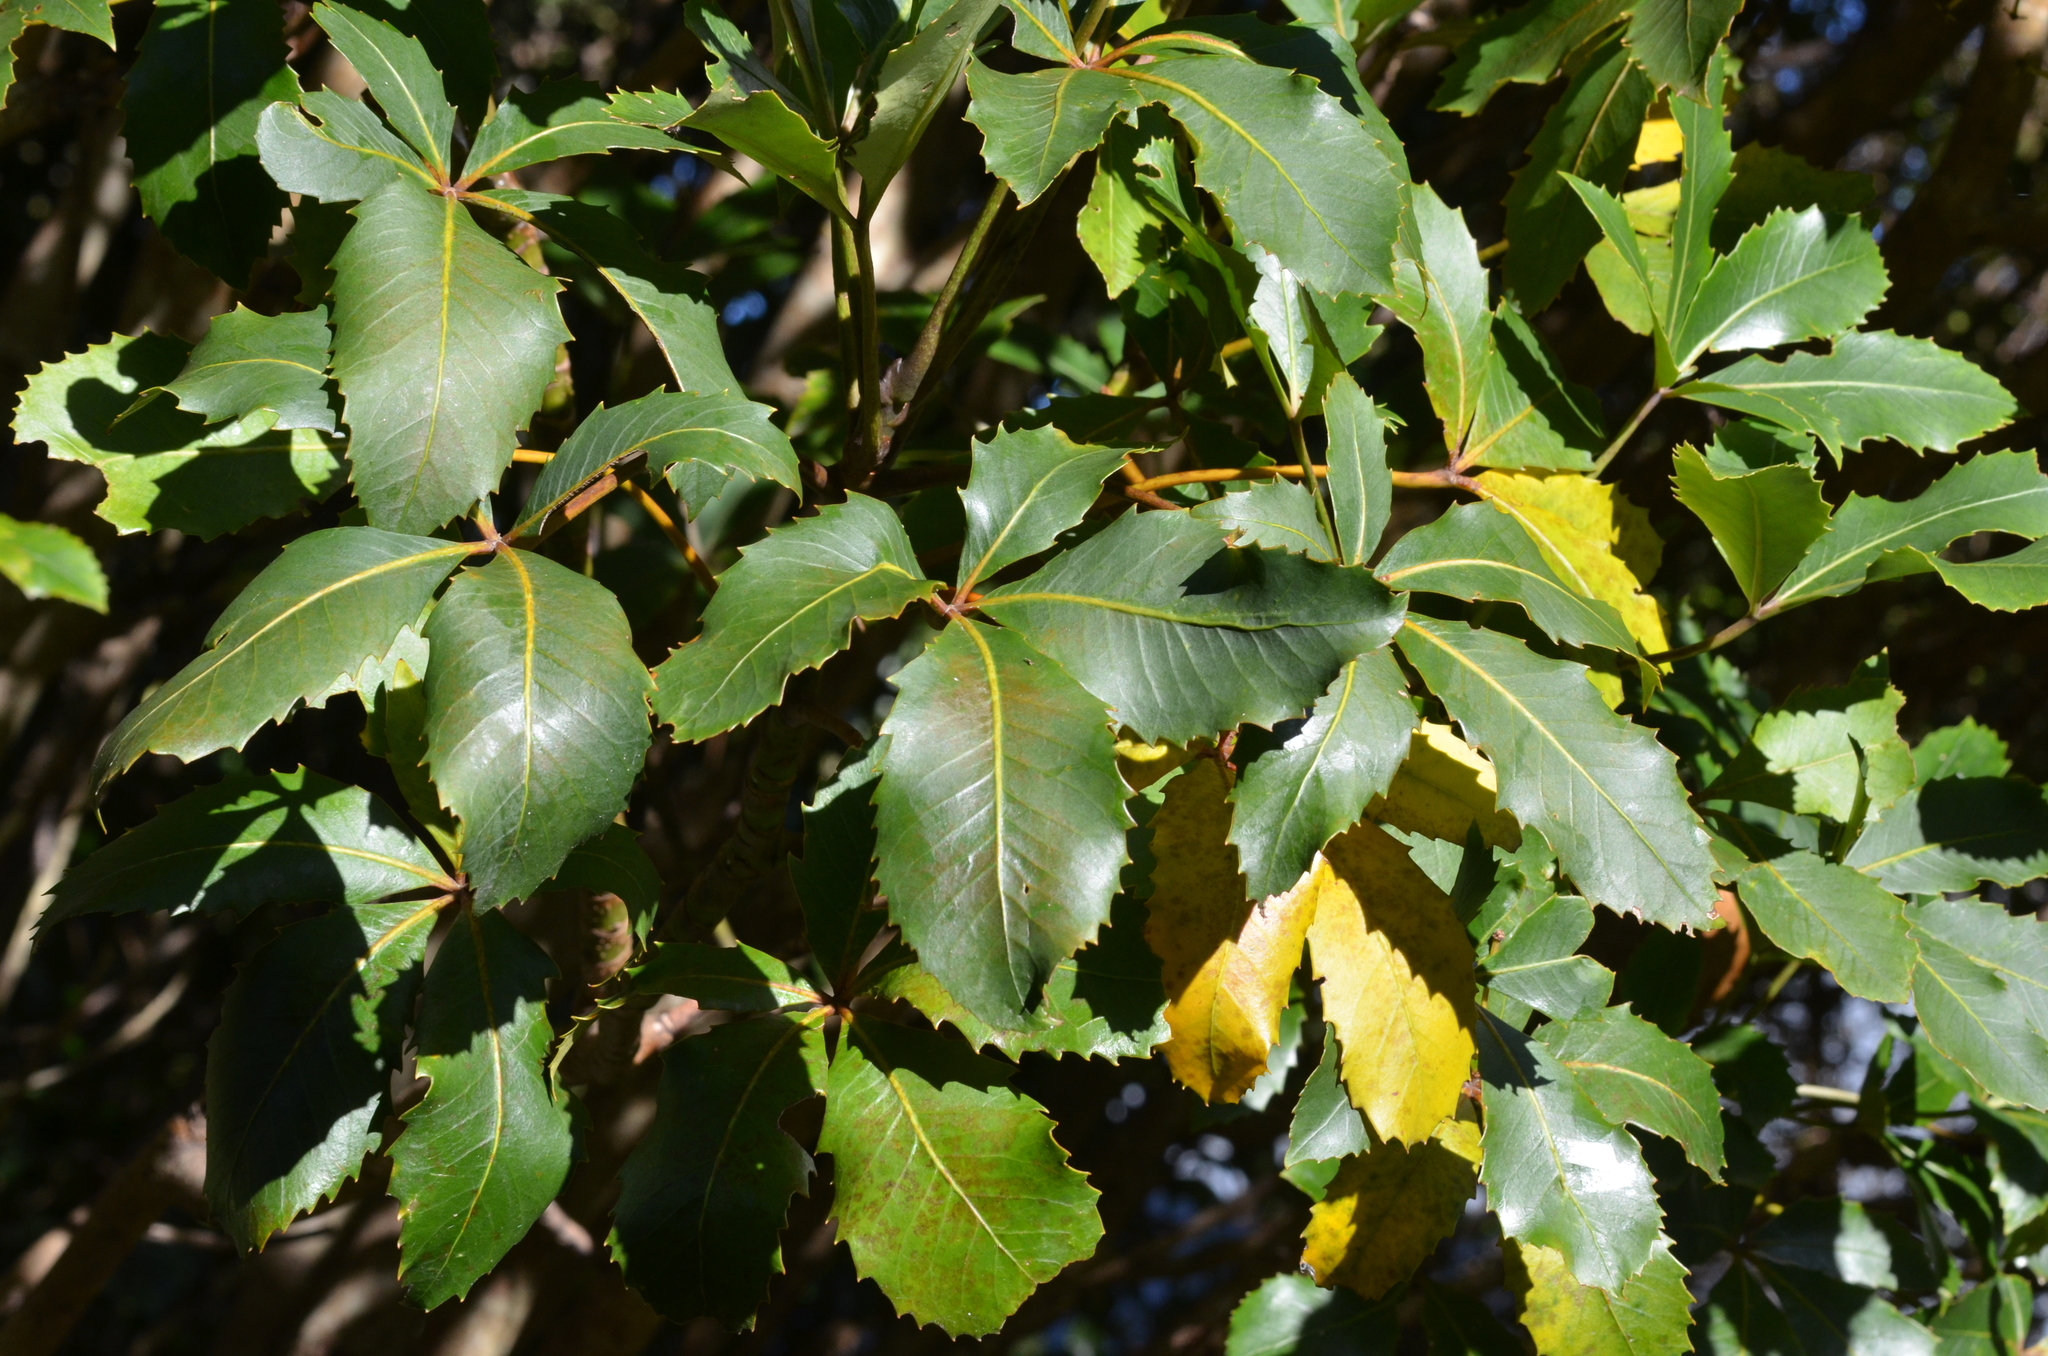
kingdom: Plantae
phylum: Tracheophyta
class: Magnoliopsida
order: Apiales
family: Araliaceae
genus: Neopanax
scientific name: Neopanax colensoi
